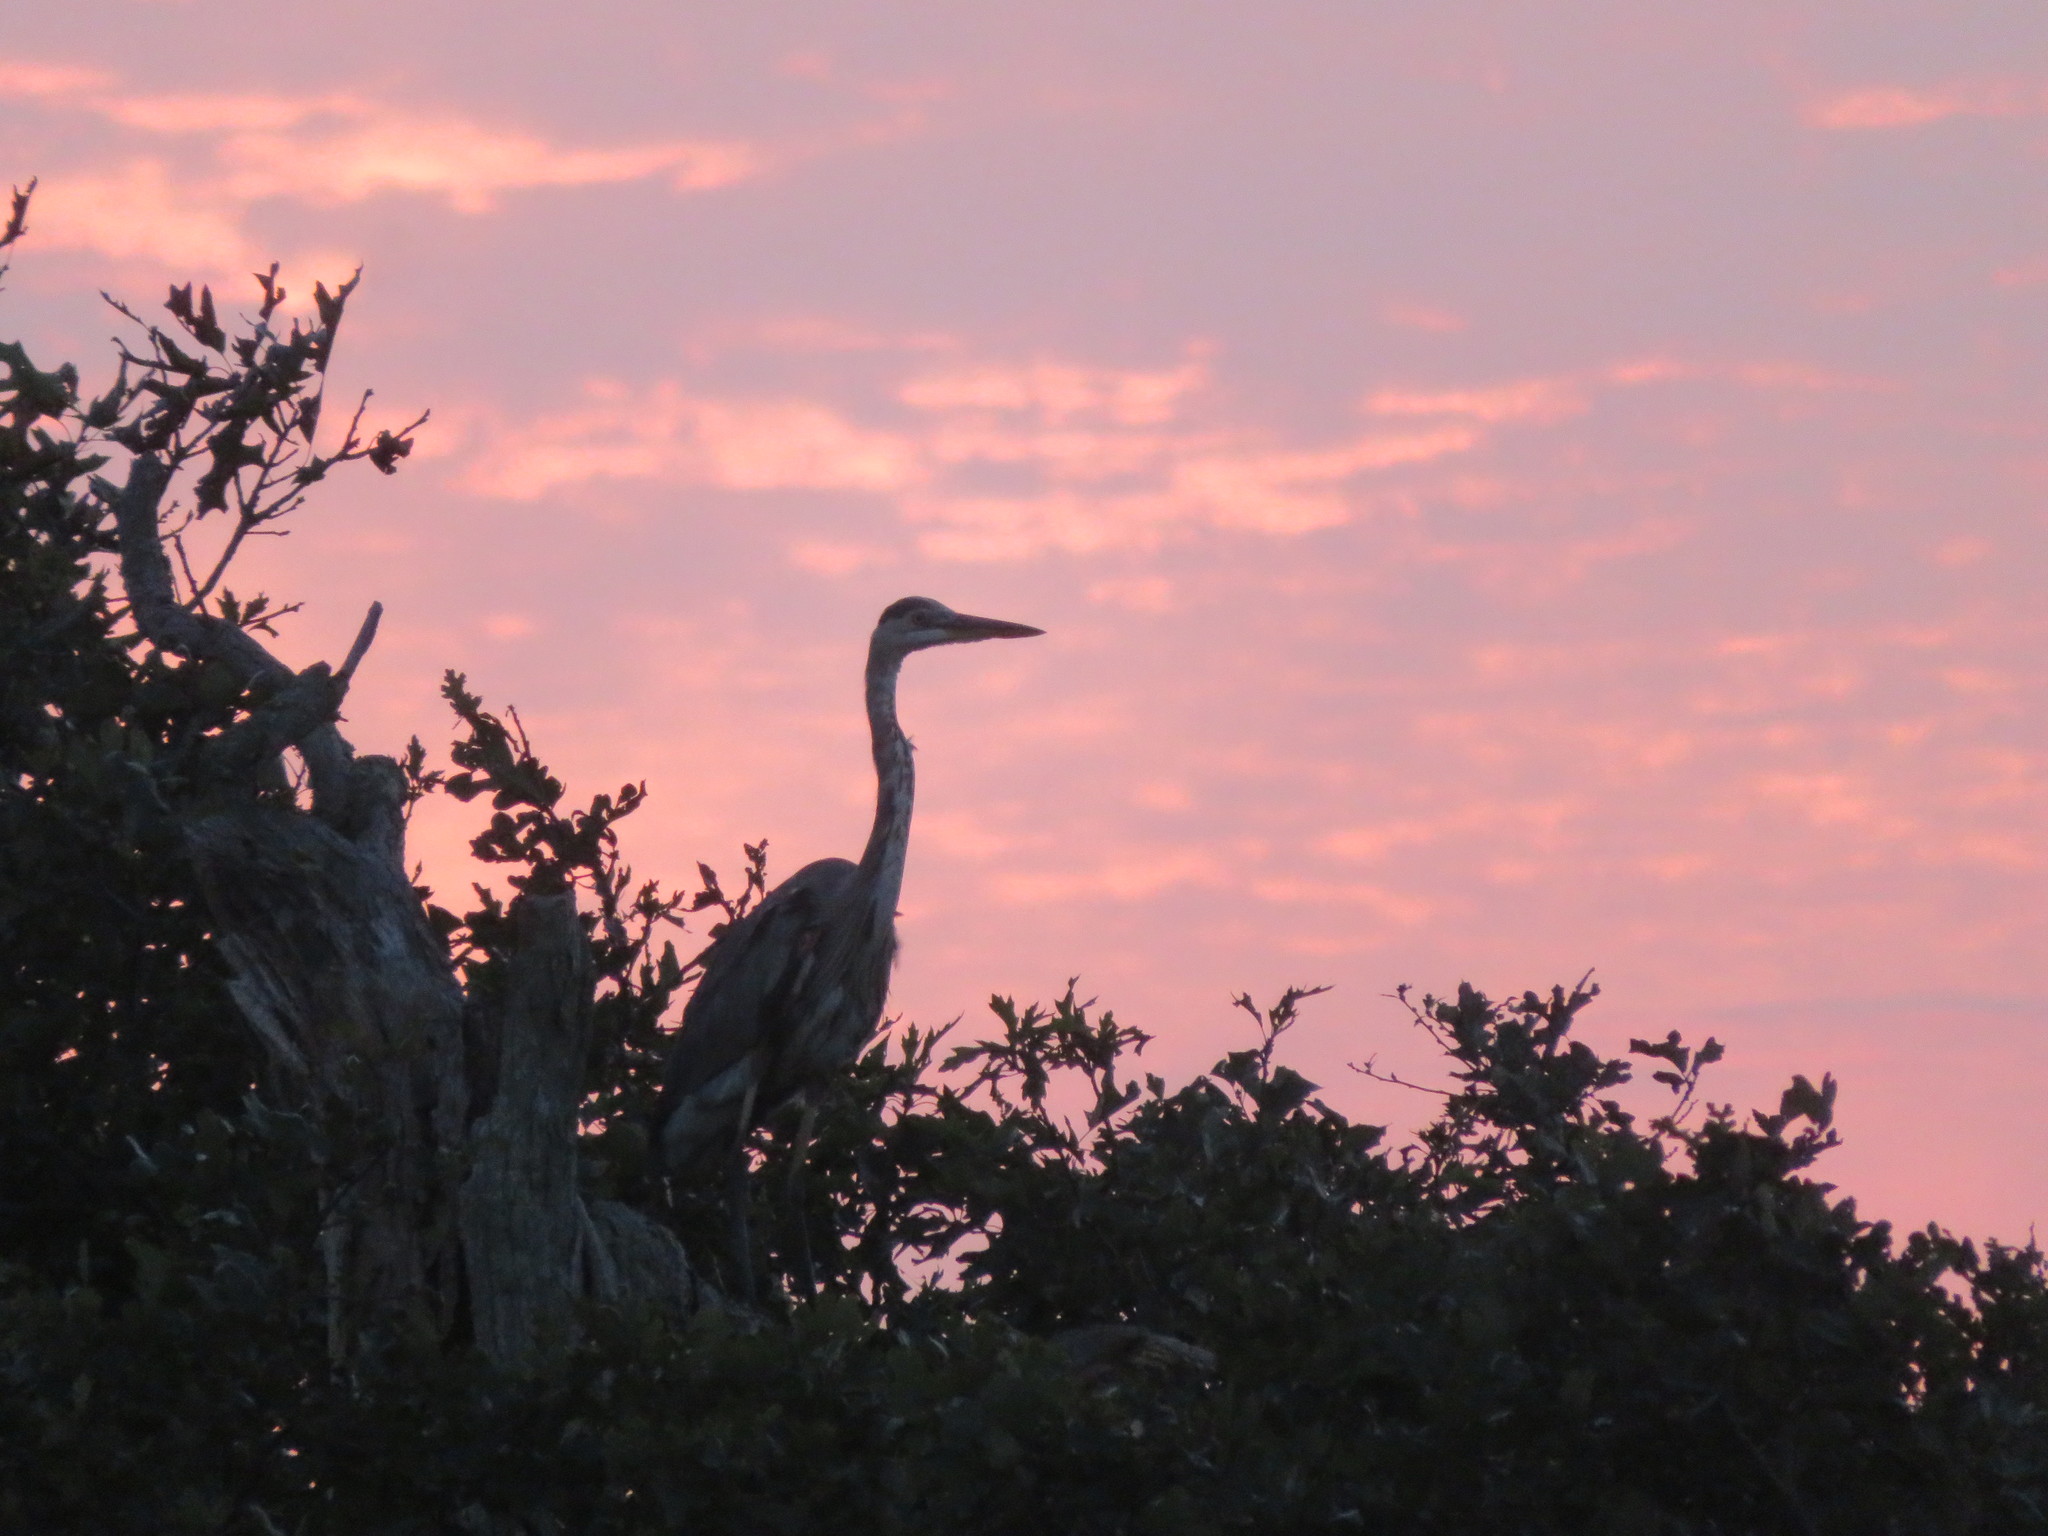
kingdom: Animalia
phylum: Chordata
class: Aves
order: Pelecaniformes
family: Ardeidae
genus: Ardea
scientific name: Ardea herodias
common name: Great blue heron
